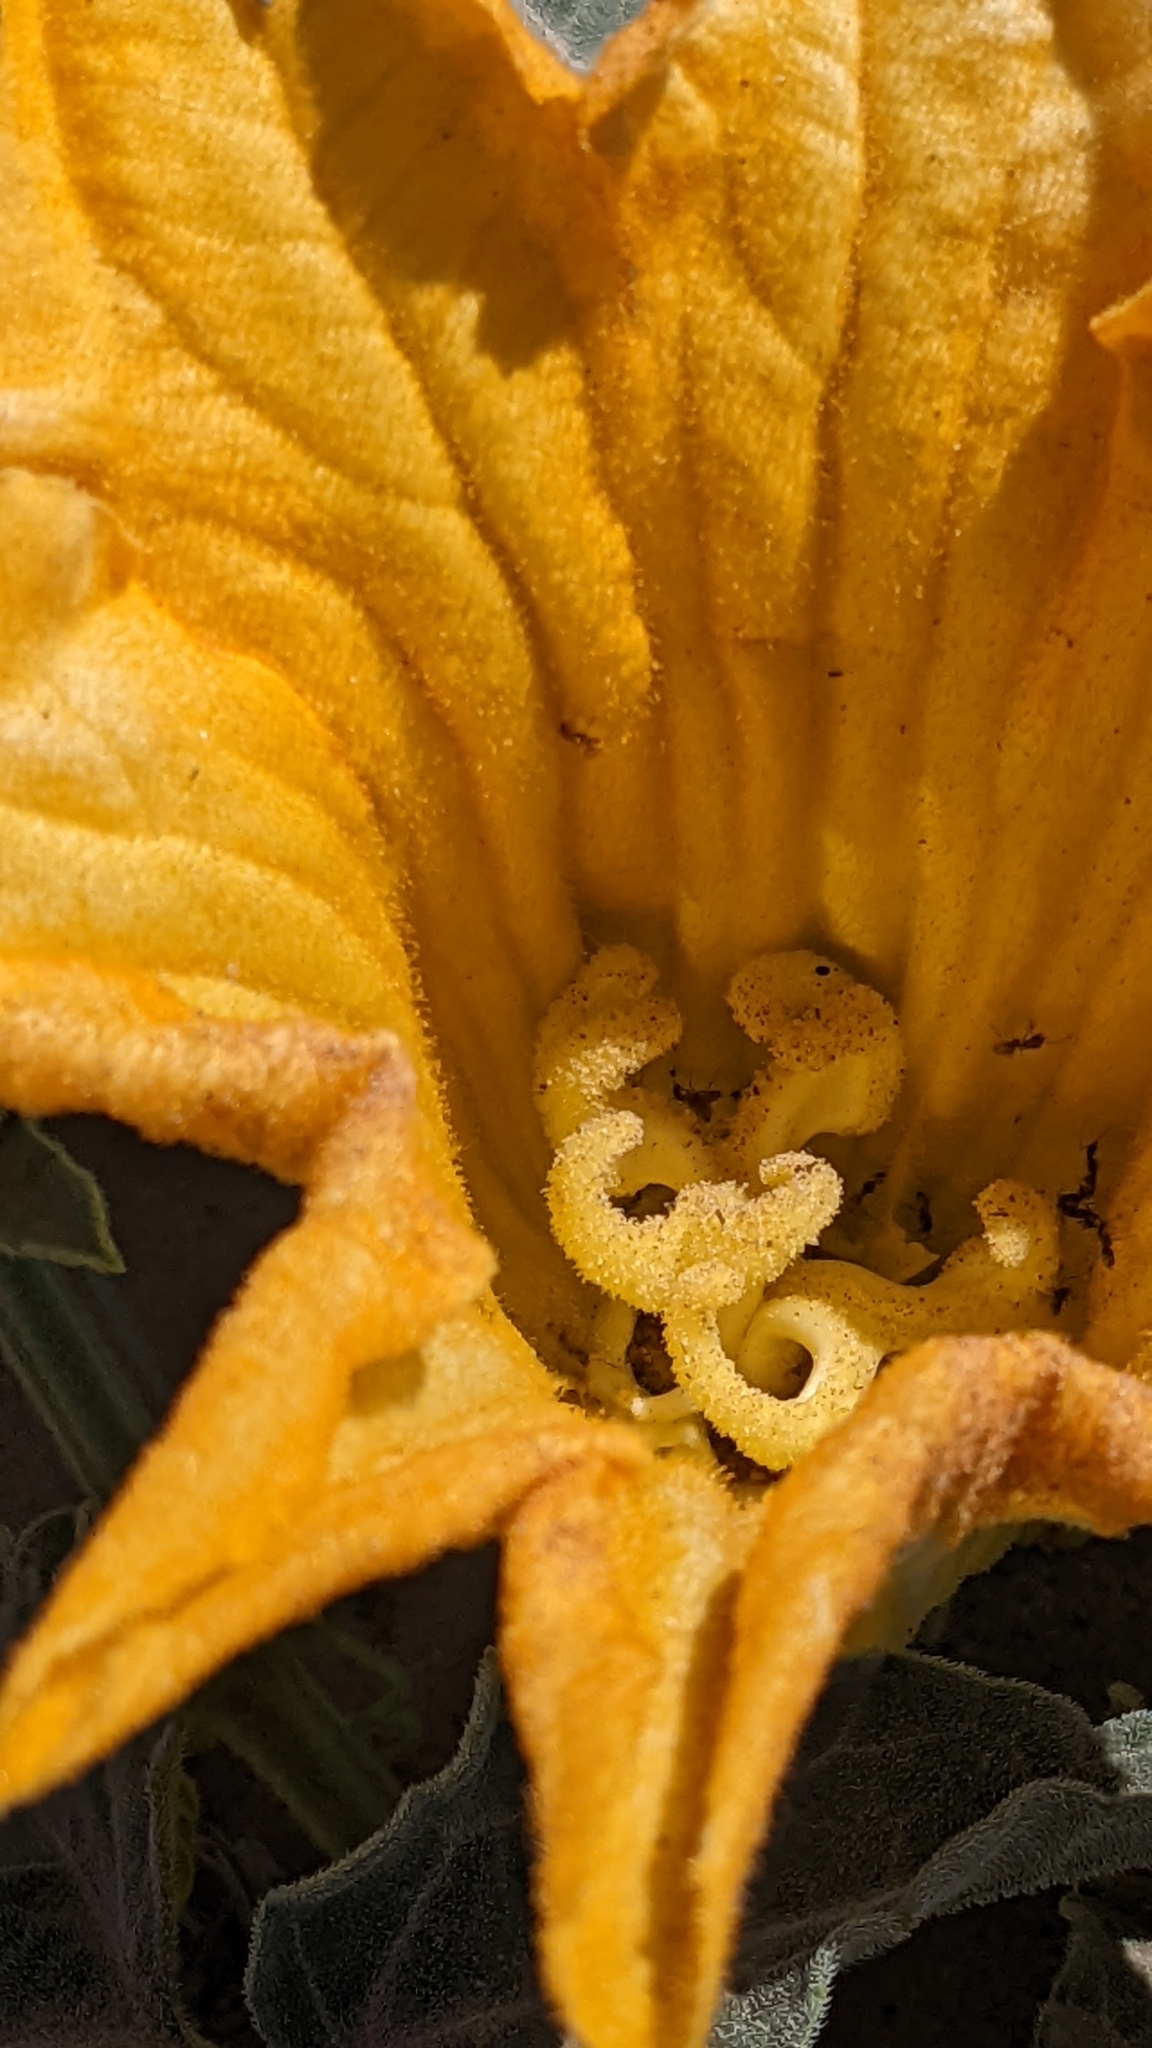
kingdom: Plantae
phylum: Tracheophyta
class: Magnoliopsida
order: Cucurbitales
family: Cucurbitaceae
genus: Cucurbita
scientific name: Cucurbita palmata
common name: Coyote-melon
